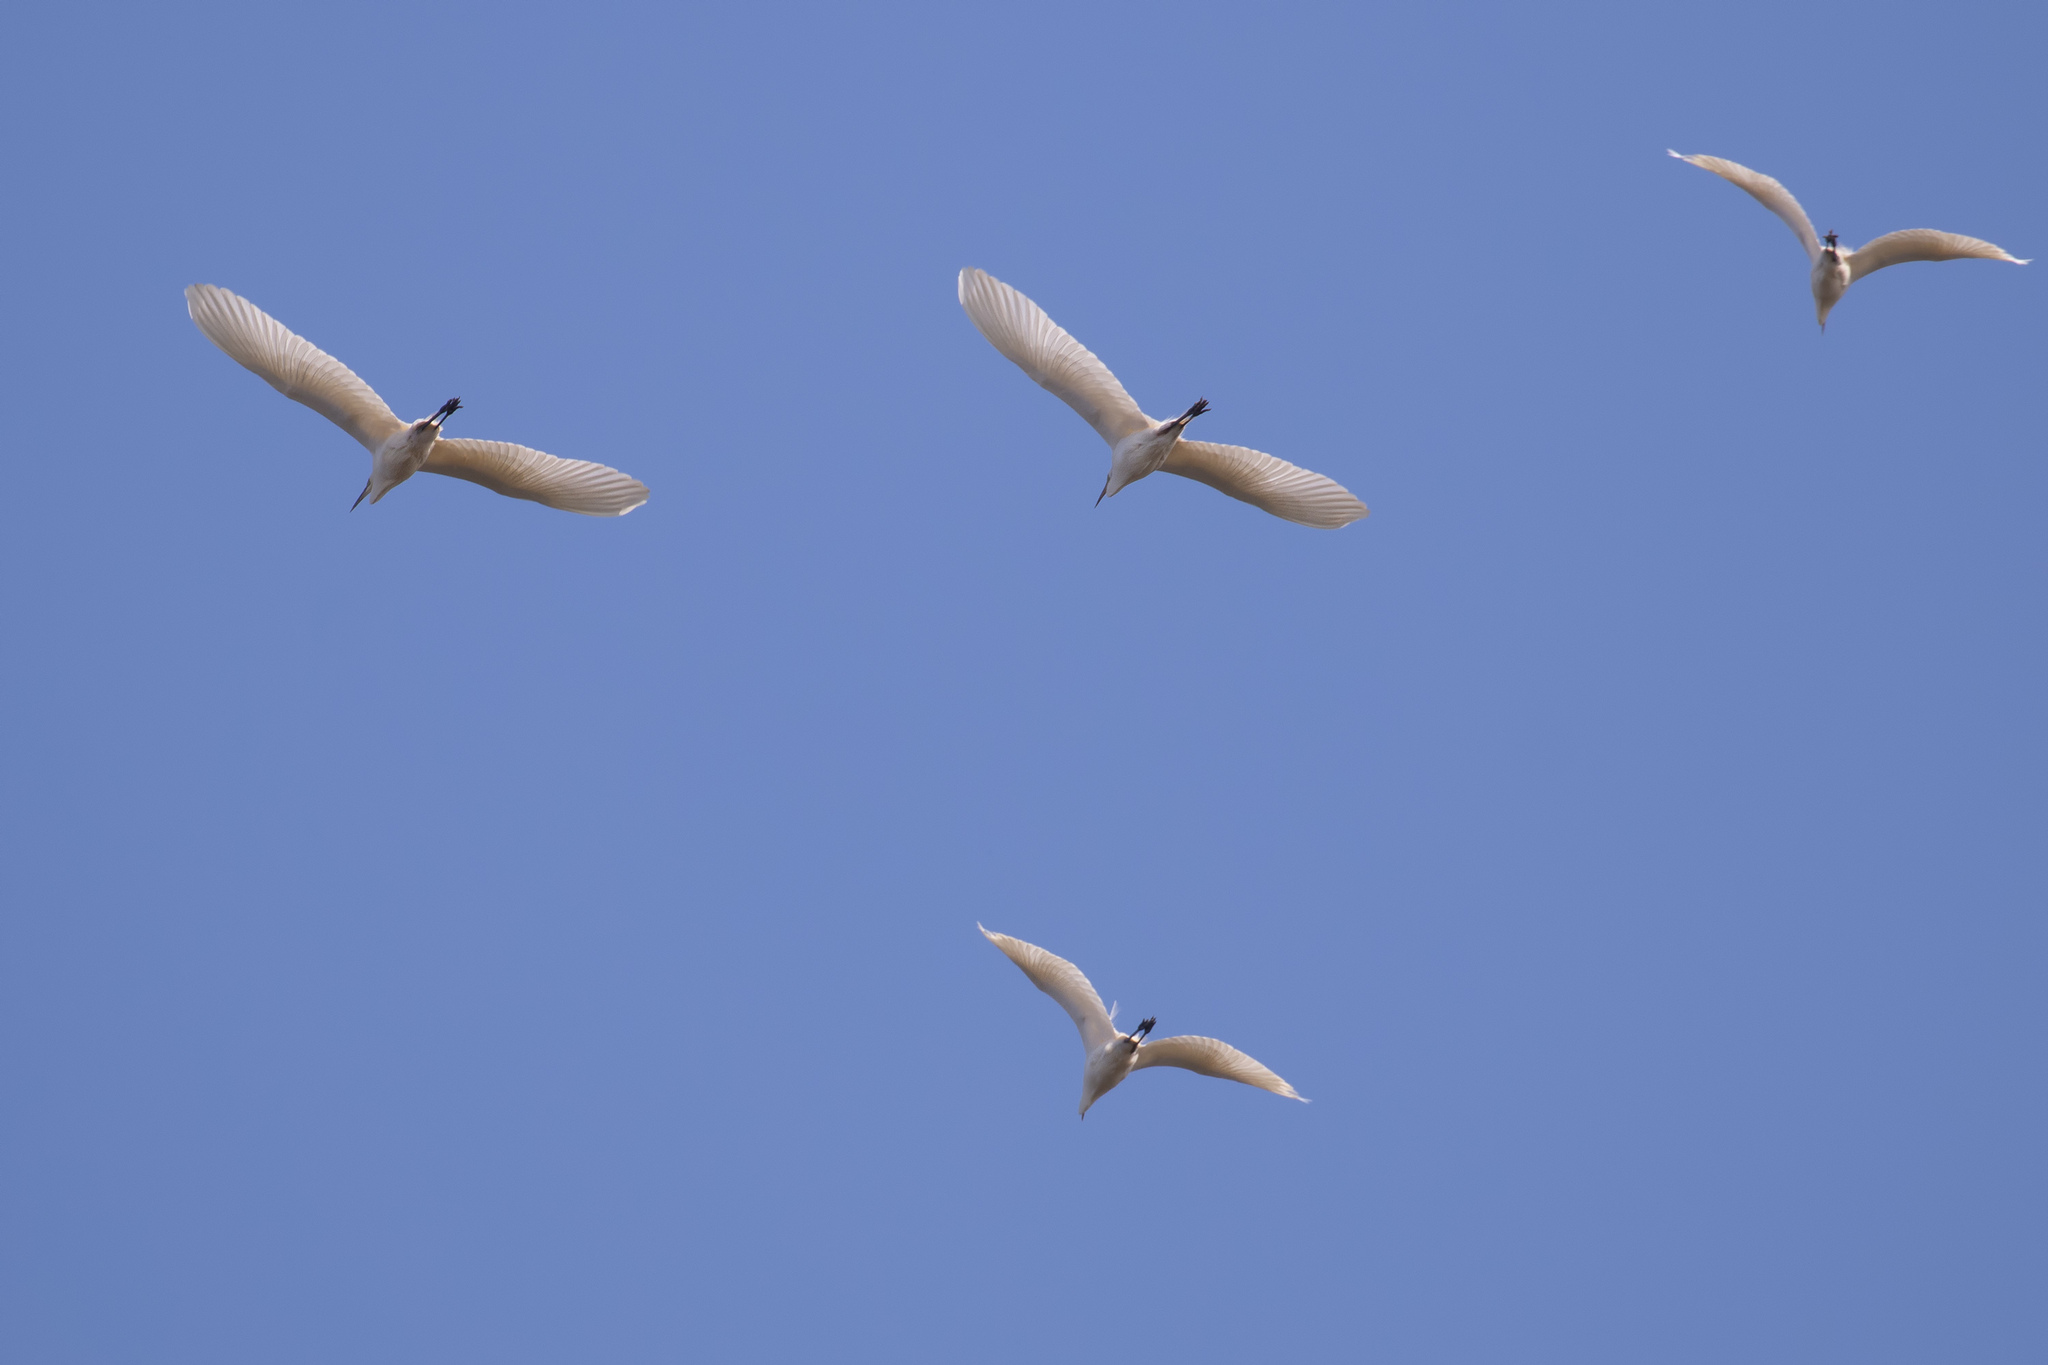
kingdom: Animalia
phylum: Chordata
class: Aves
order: Pelecaniformes
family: Ardeidae
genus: Ardea
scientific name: Ardea alba
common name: Great egret
